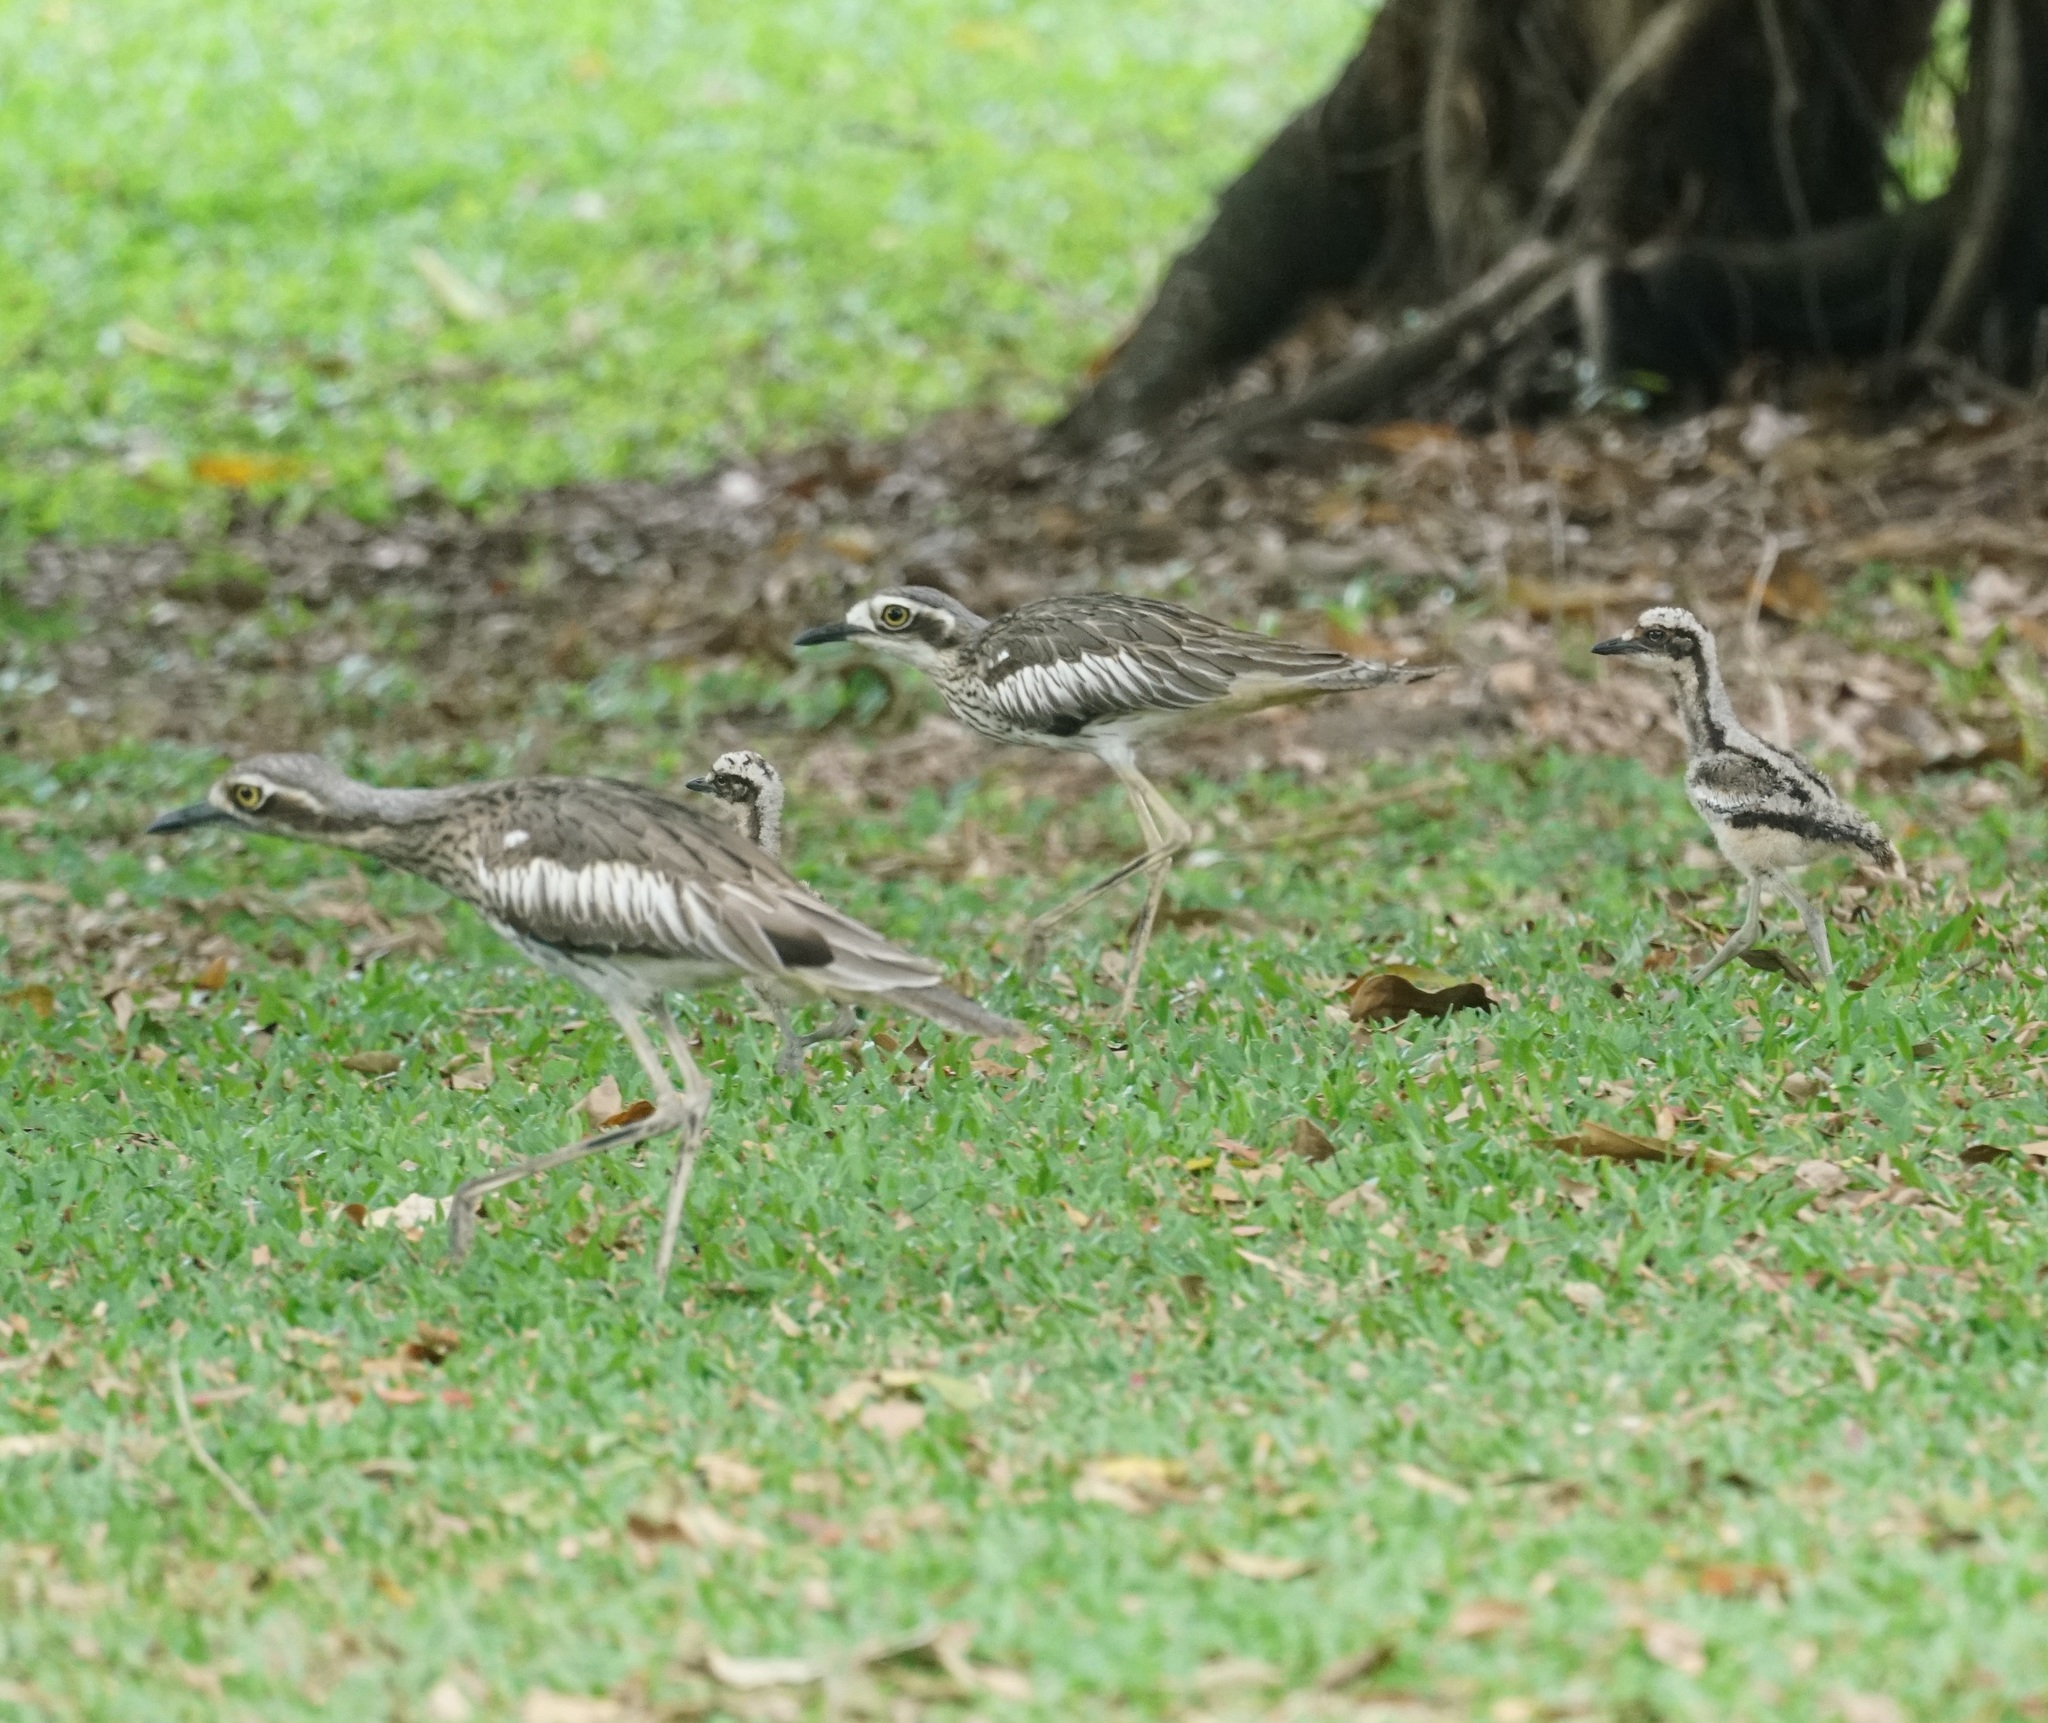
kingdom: Animalia
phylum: Chordata
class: Aves
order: Charadriiformes
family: Burhinidae
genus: Burhinus
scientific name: Burhinus grallarius
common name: Bush stone-curlew
